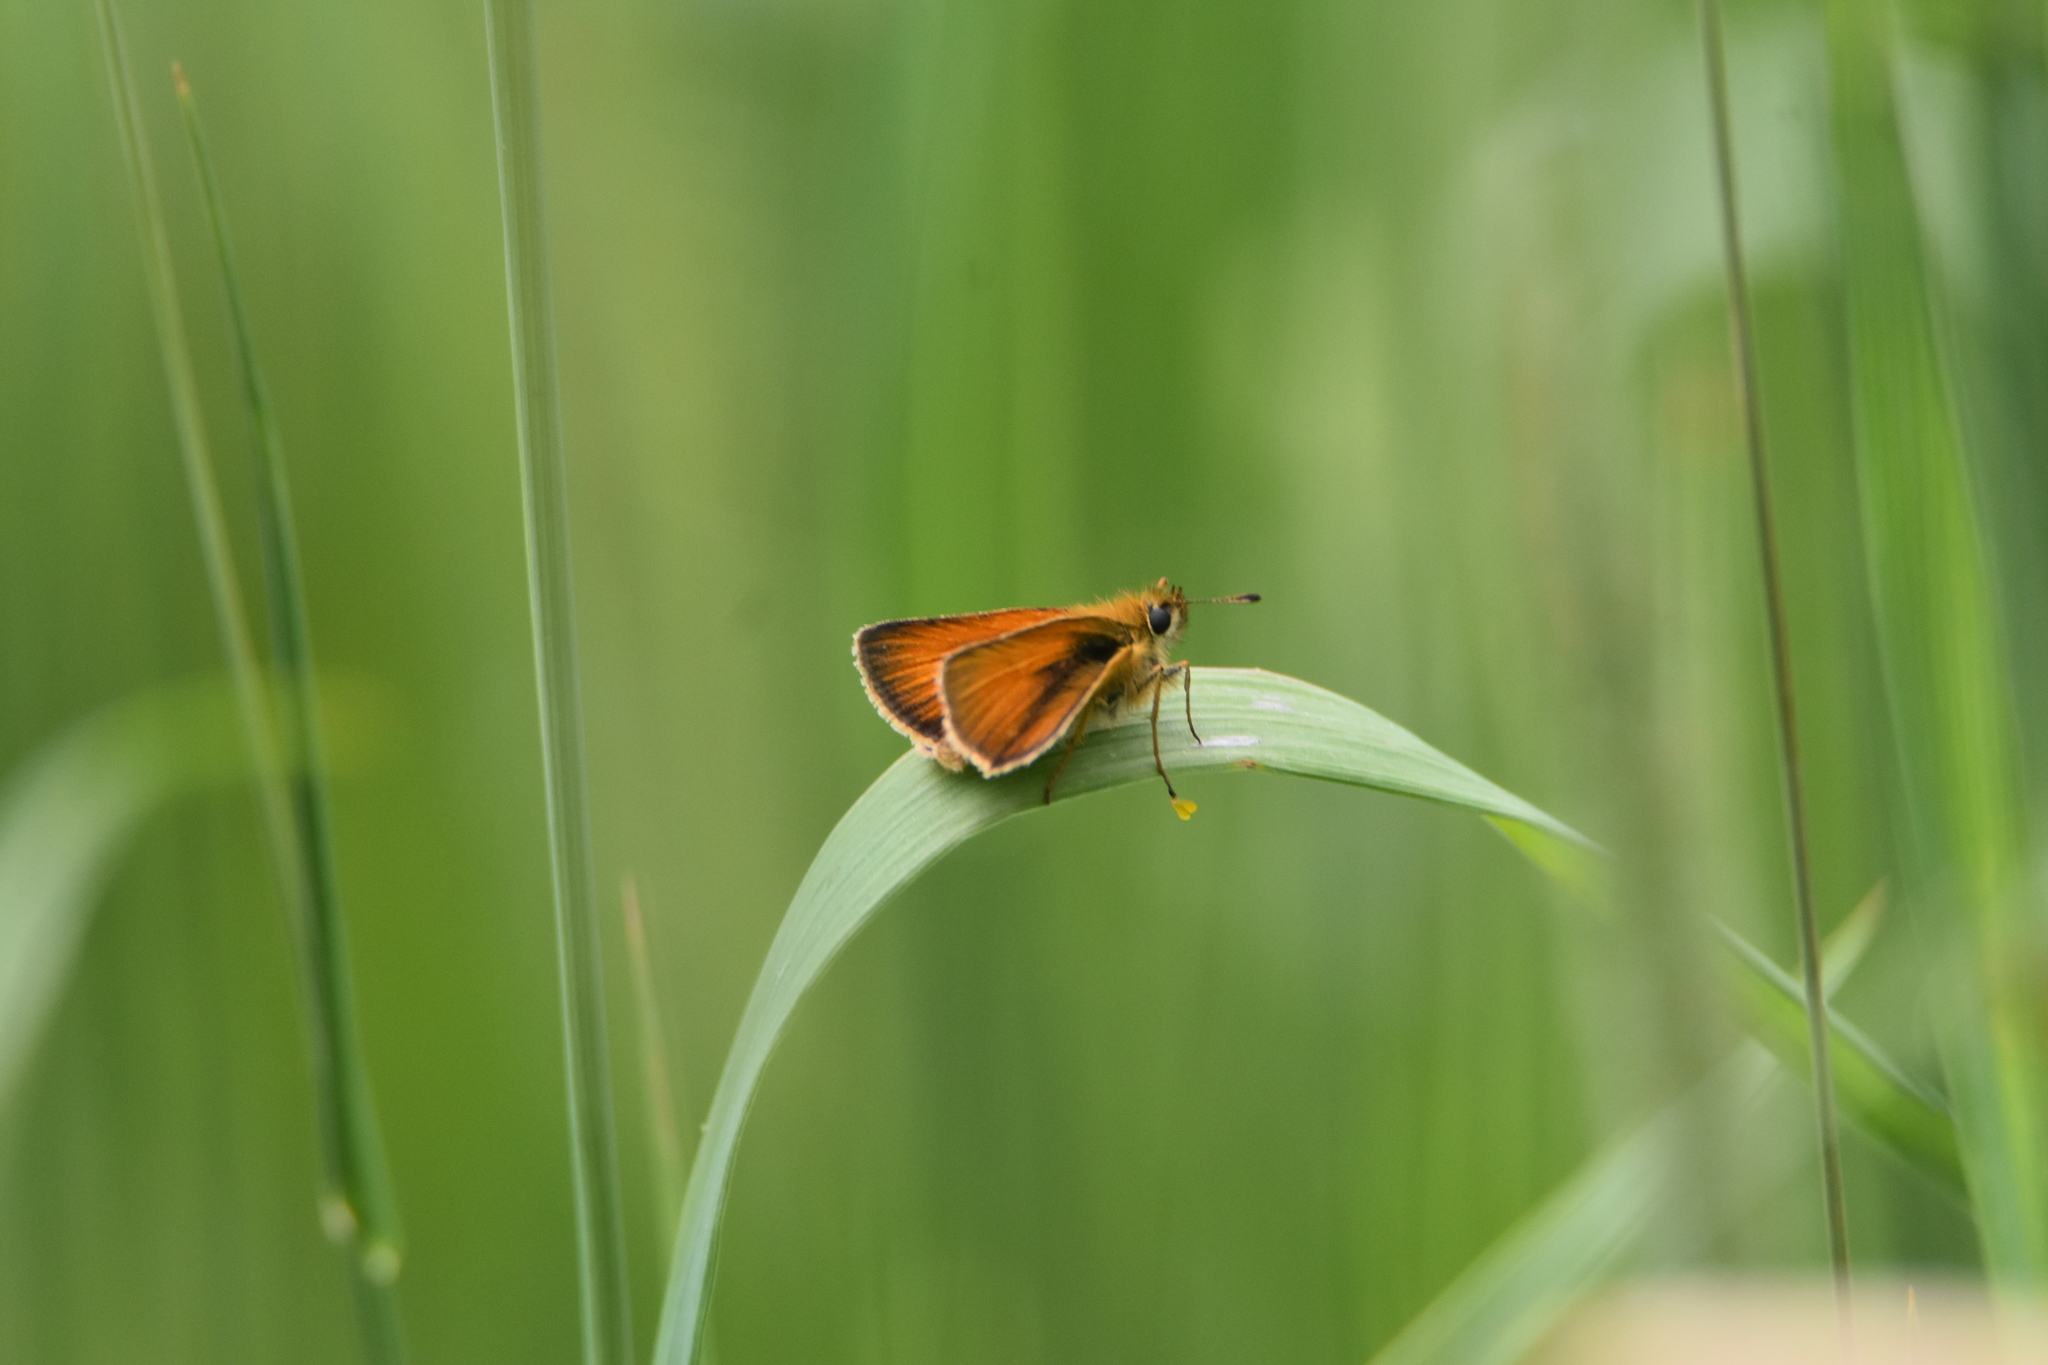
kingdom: Animalia
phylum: Arthropoda
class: Insecta
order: Lepidoptera
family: Hesperiidae
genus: Thymelicus
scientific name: Thymelicus lineola
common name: Essex skipper
